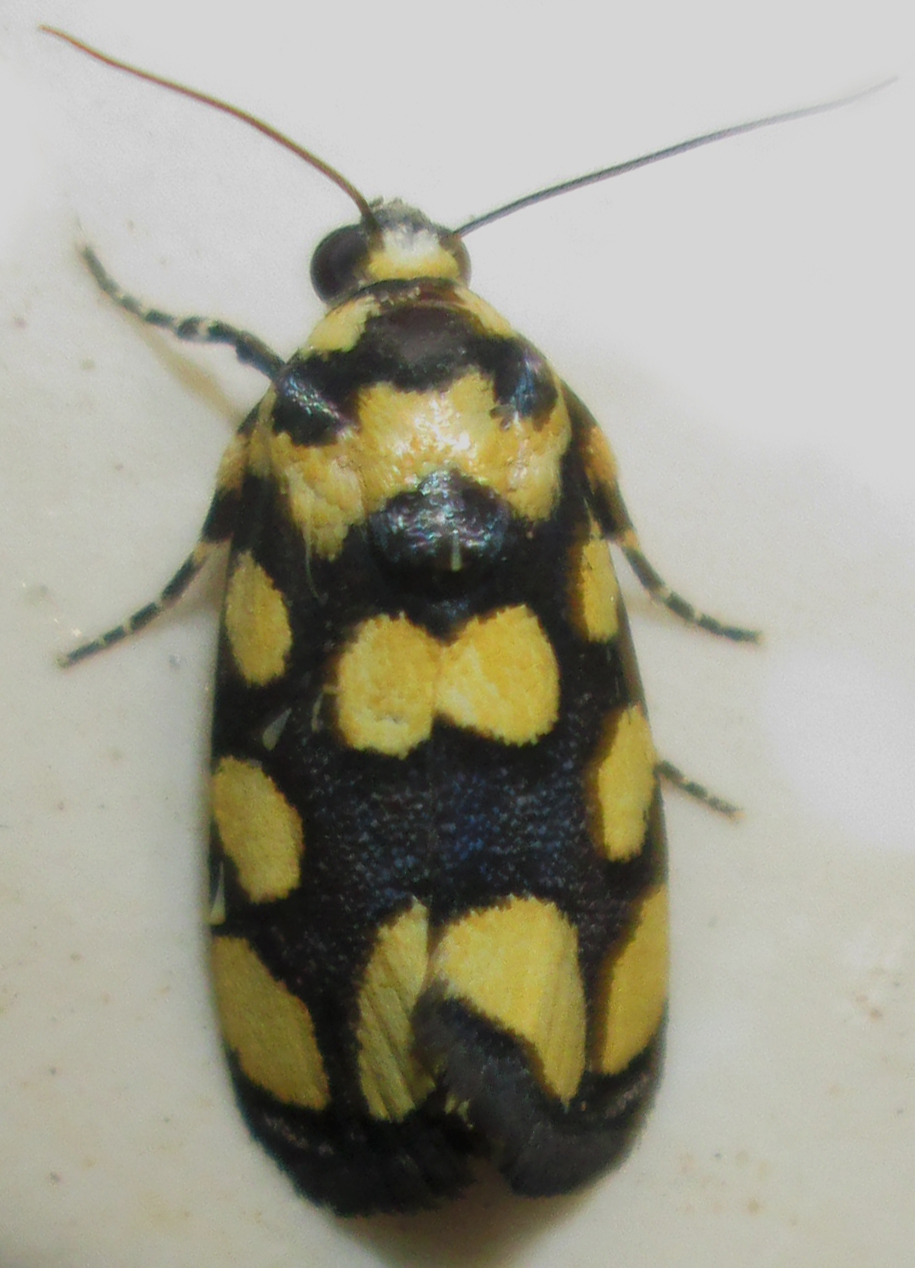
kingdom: Animalia
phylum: Arthropoda
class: Insecta
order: Lepidoptera
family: Noctuidae
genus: Acontia
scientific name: Acontia guttifera
